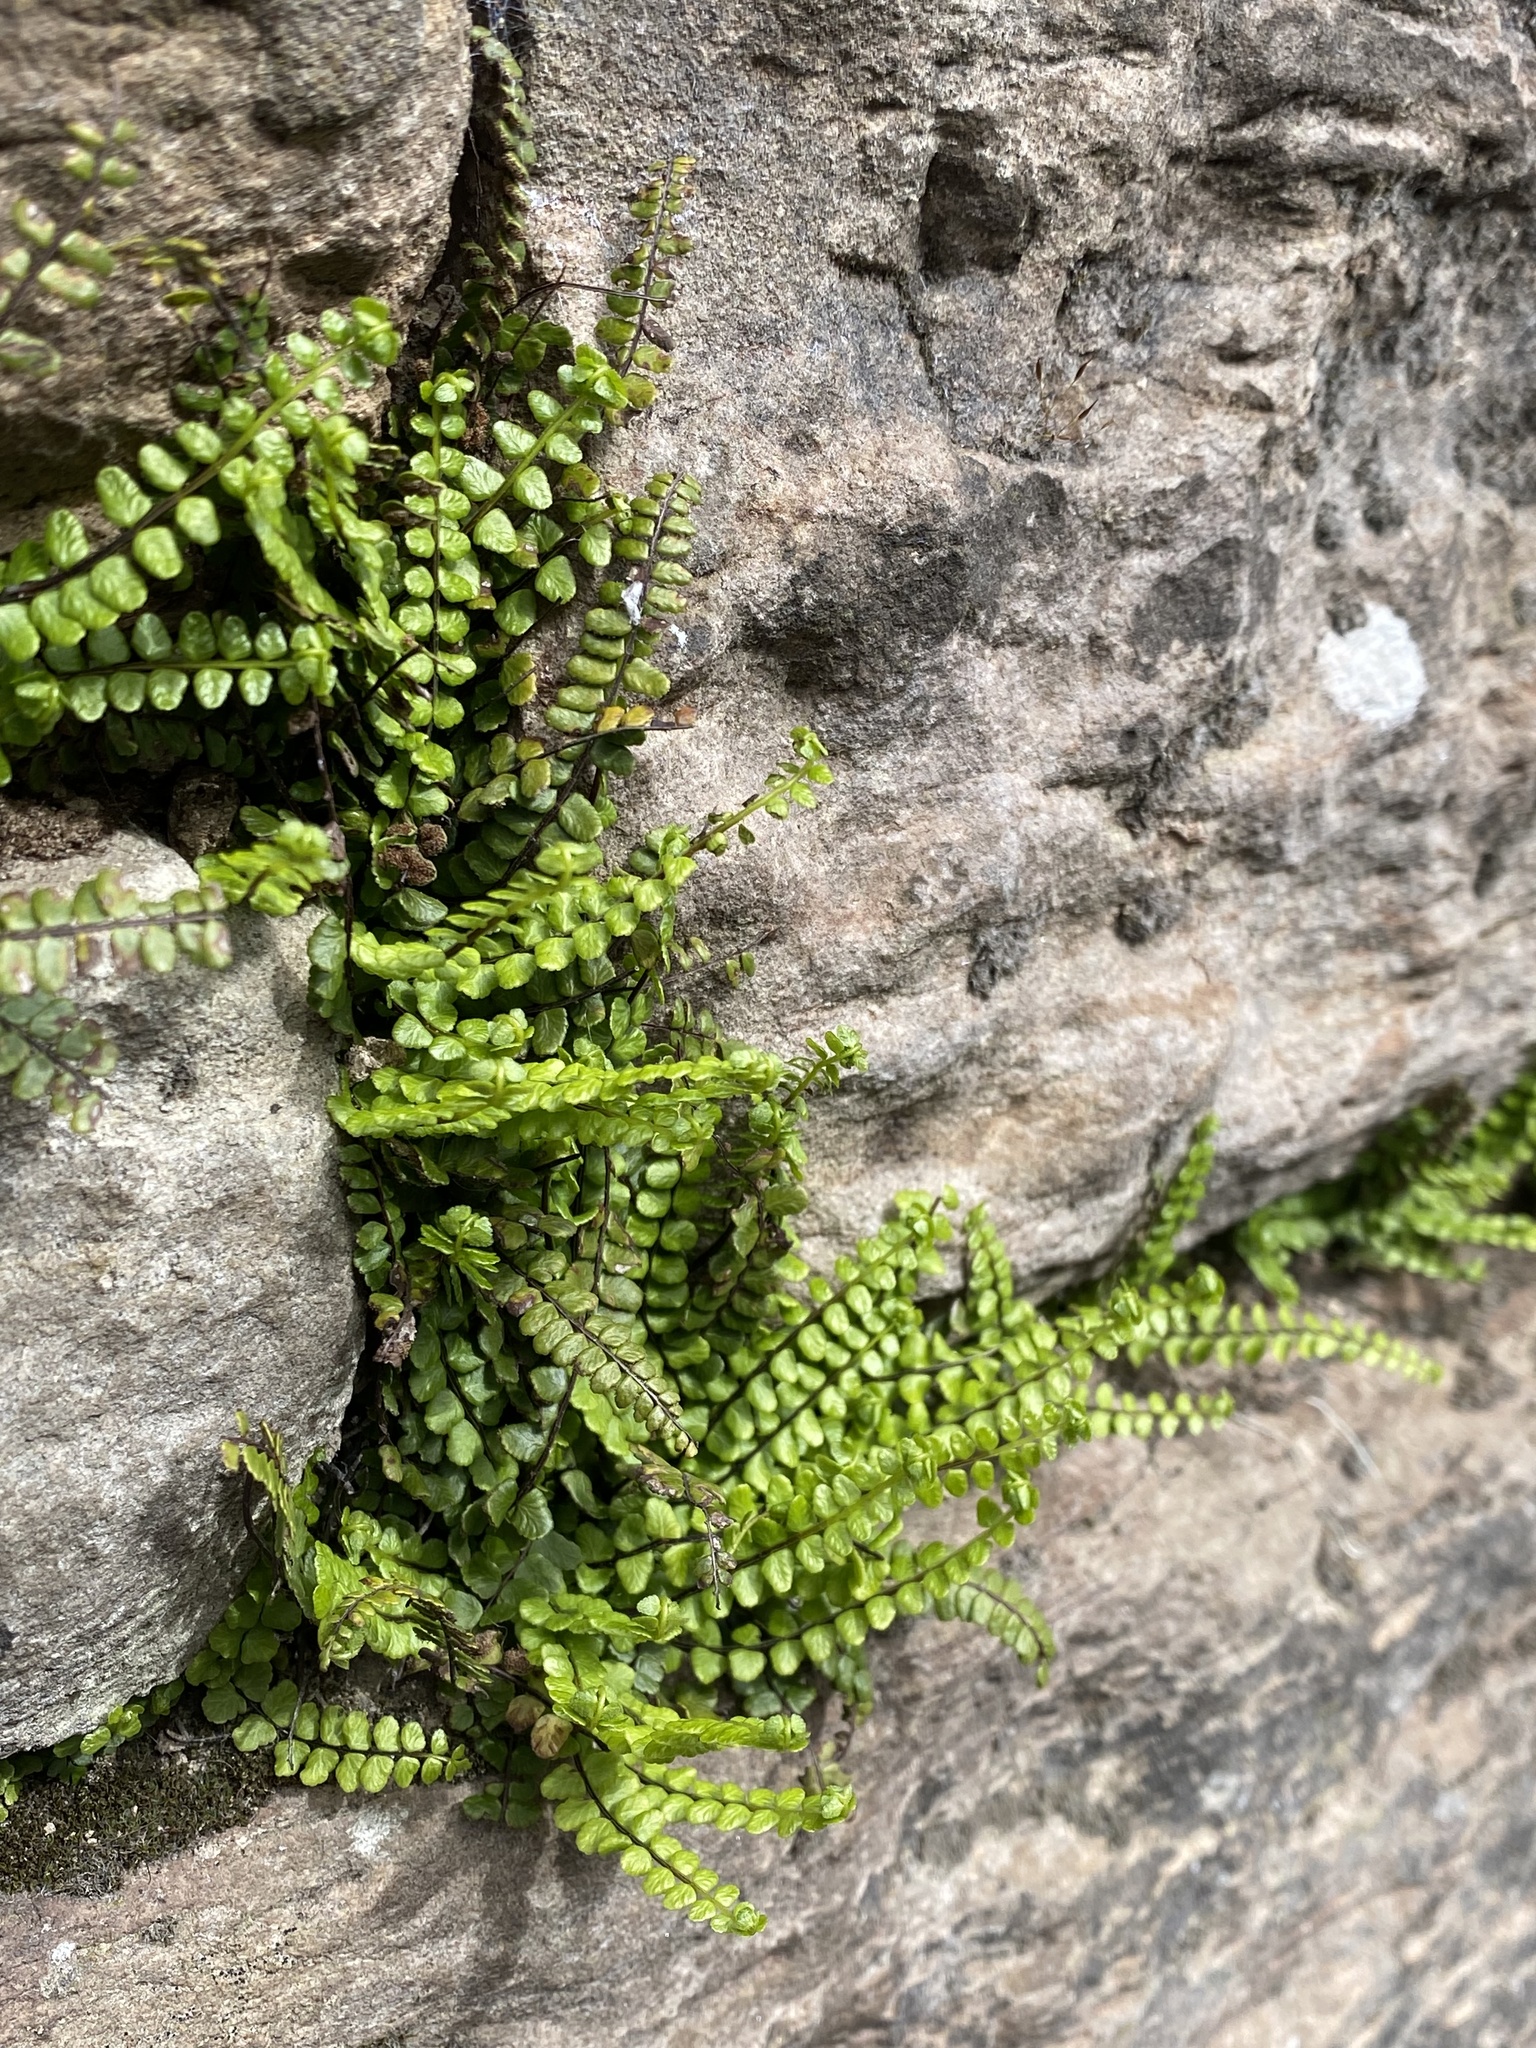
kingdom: Plantae
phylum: Tracheophyta
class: Polypodiopsida
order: Polypodiales
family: Aspleniaceae
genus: Asplenium
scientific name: Asplenium trichomanes
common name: Maidenhair spleenwort
